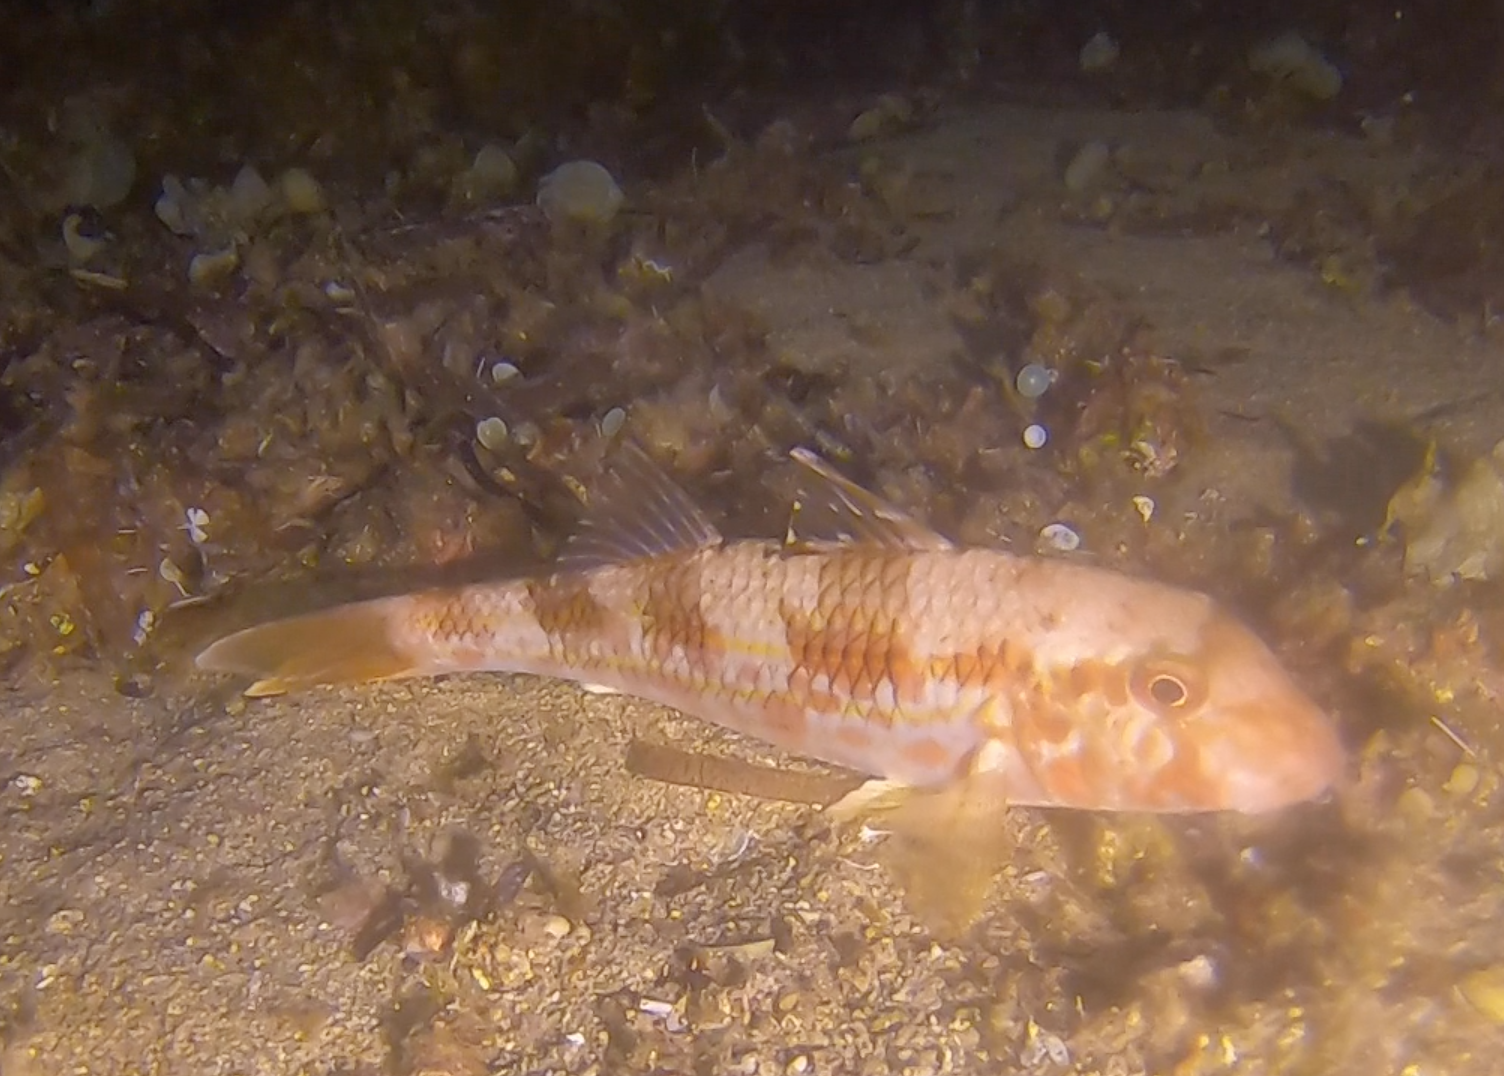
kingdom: Animalia
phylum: Chordata
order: Perciformes
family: Mullidae
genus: Mullus
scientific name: Mullus surmuletus
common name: Red mullet
